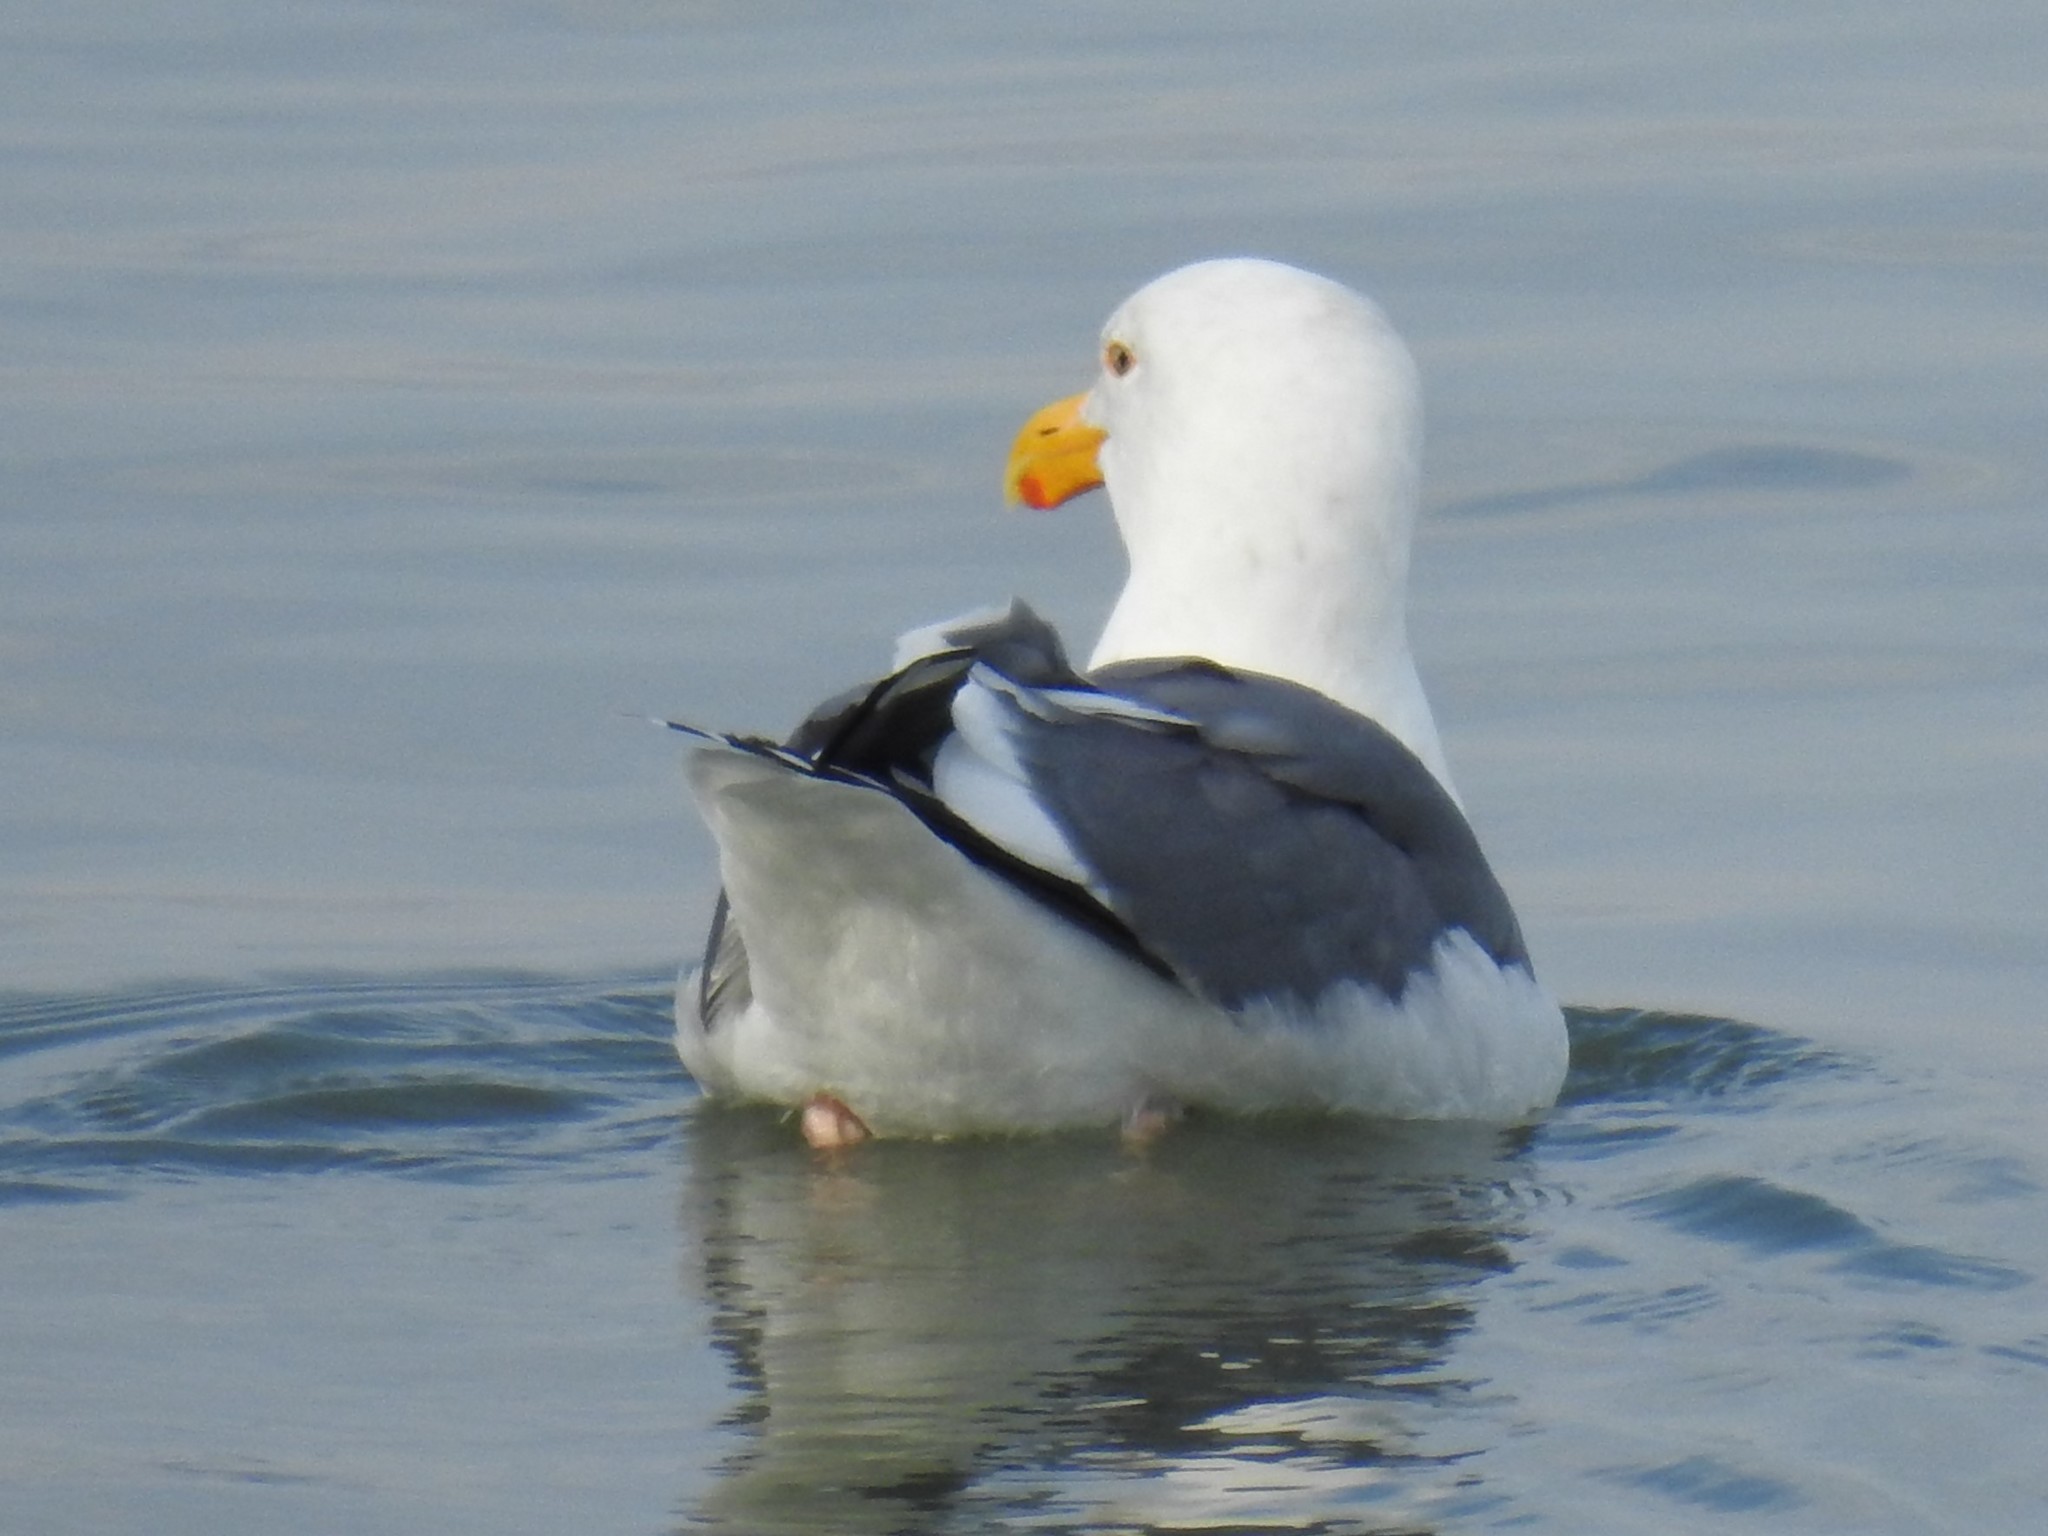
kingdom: Animalia
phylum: Chordata
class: Aves
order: Charadriiformes
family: Laridae
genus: Larus
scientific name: Larus occidentalis
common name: Western gull
